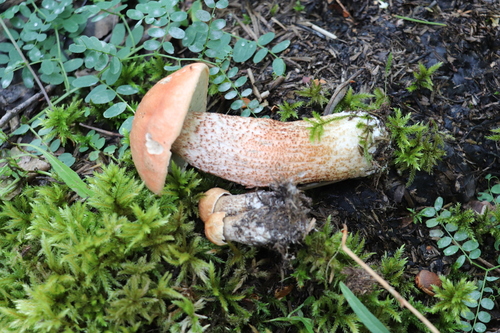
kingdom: Fungi
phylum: Basidiomycota
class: Agaricomycetes
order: Boletales
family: Boletaceae
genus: Leccinum
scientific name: Leccinum aurantiacum
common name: Orange bolete
